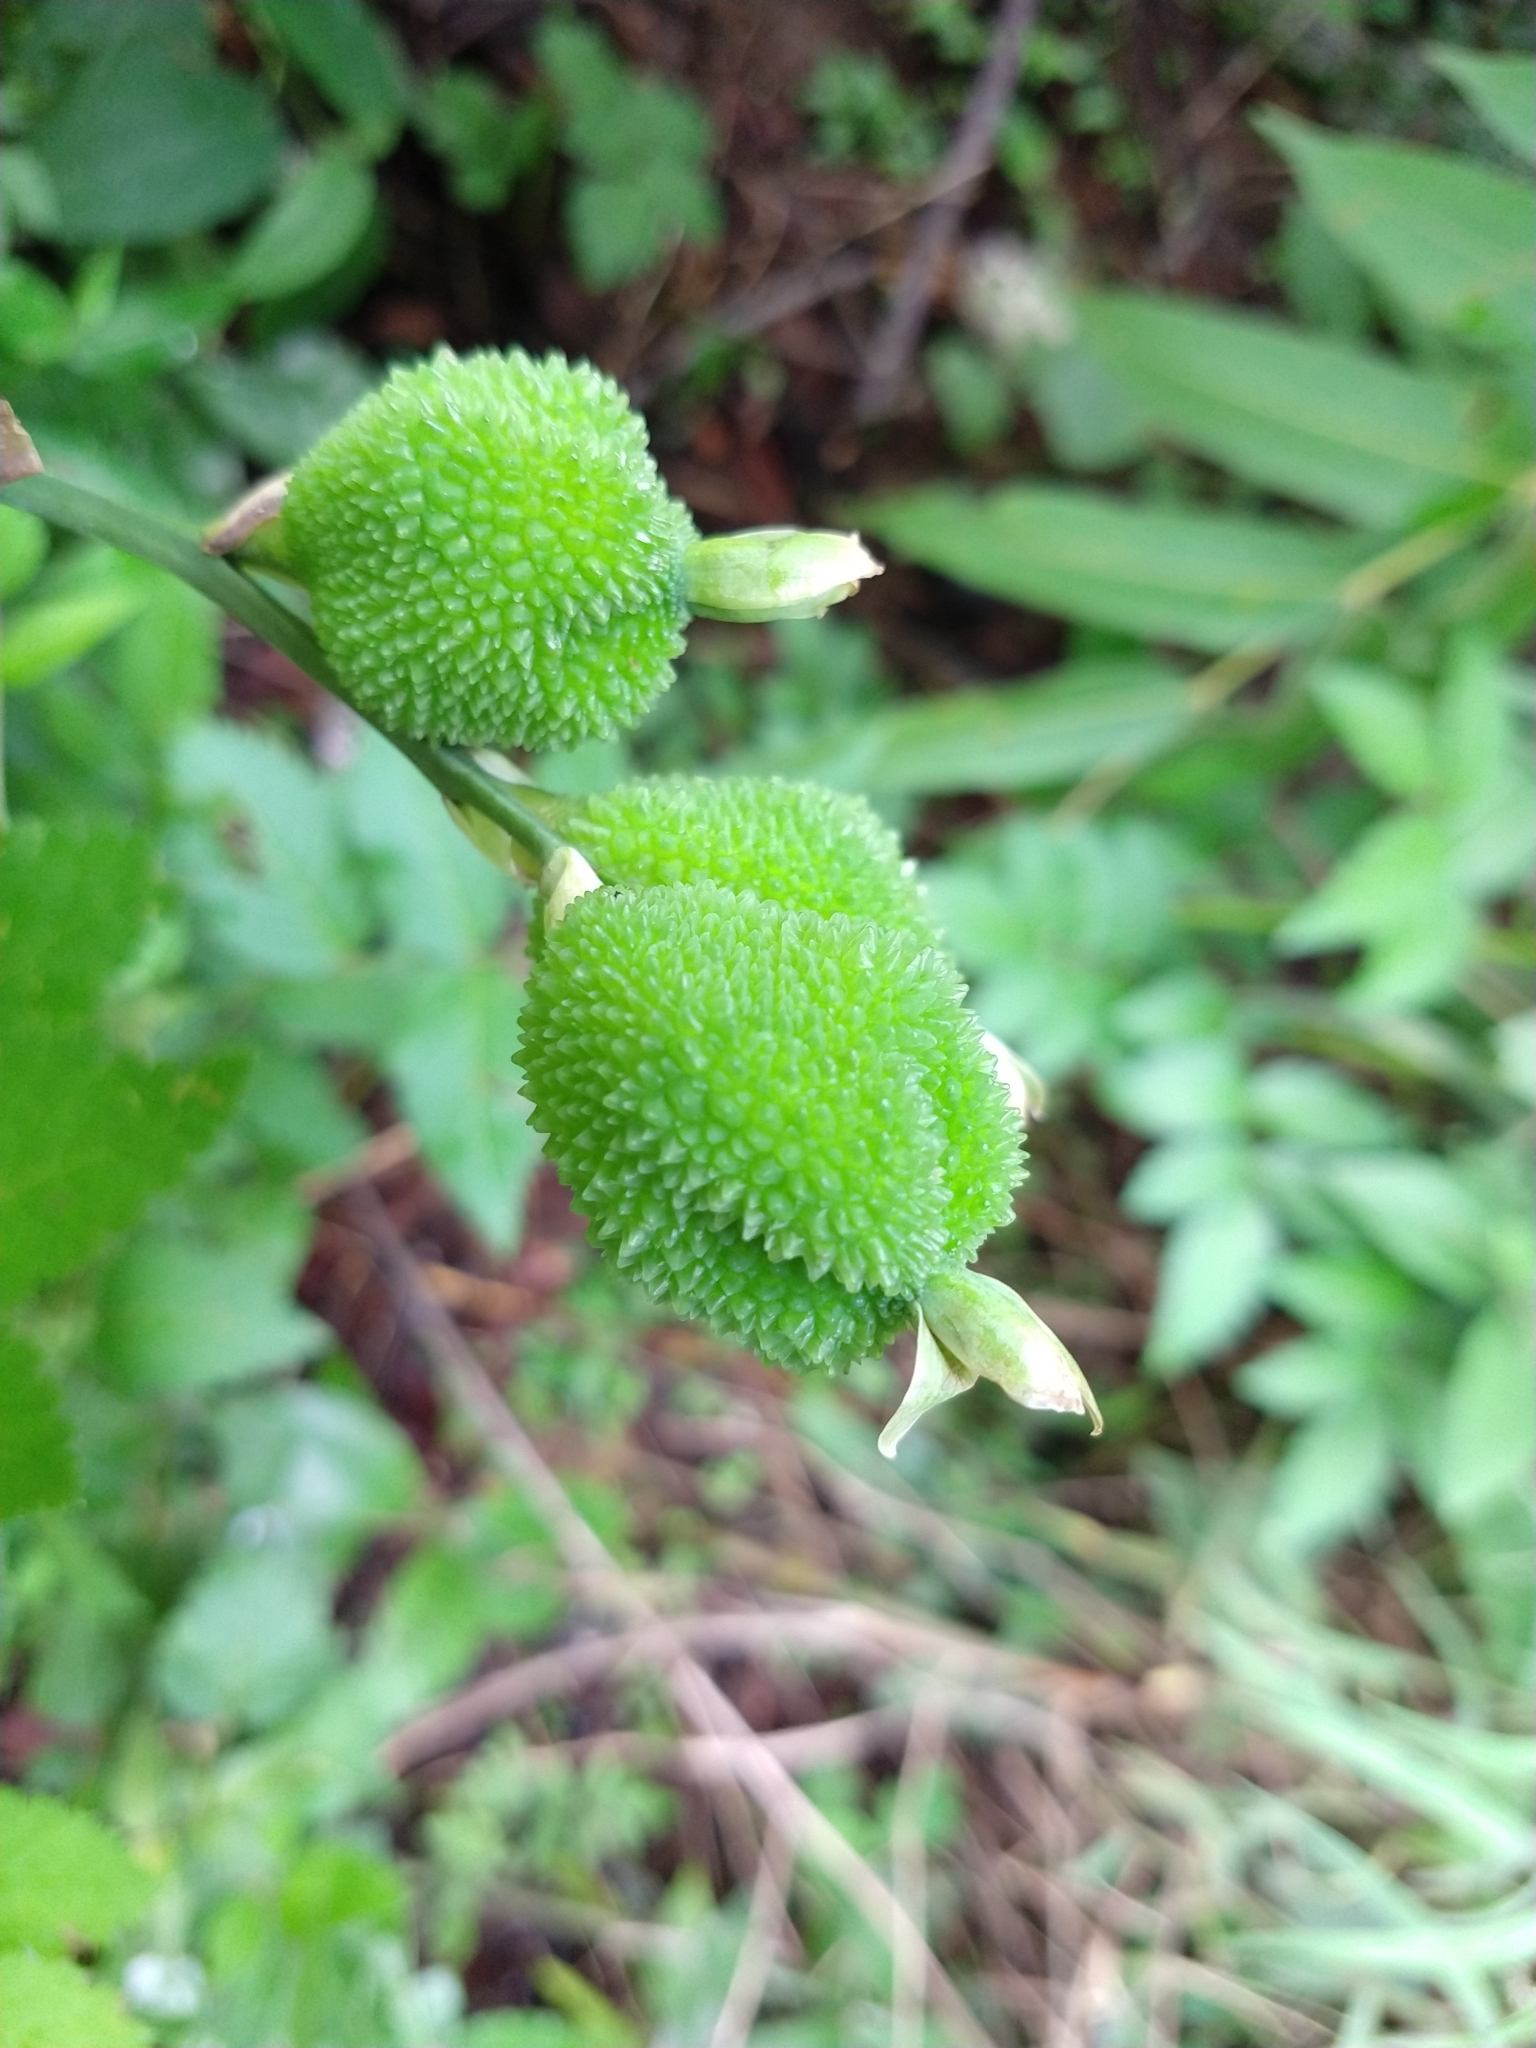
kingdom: Plantae
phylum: Tracheophyta
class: Liliopsida
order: Zingiberales
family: Cannaceae
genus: Canna
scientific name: Canna indica
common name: Indian shot
